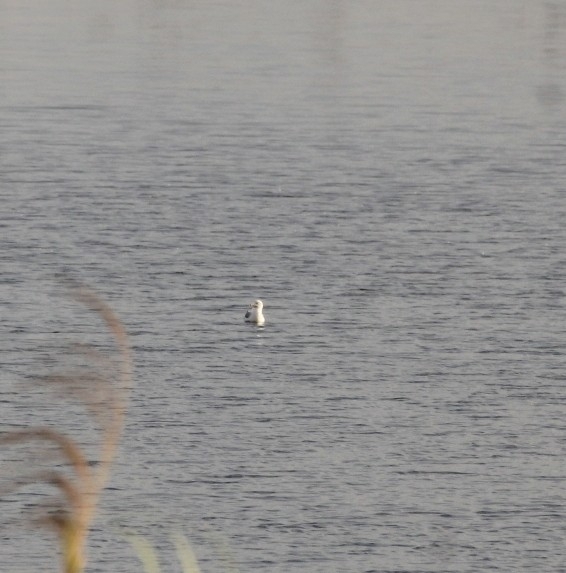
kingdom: Animalia
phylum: Chordata
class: Aves
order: Charadriiformes
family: Laridae
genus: Larus
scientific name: Larus delawarensis
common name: Ring-billed gull
